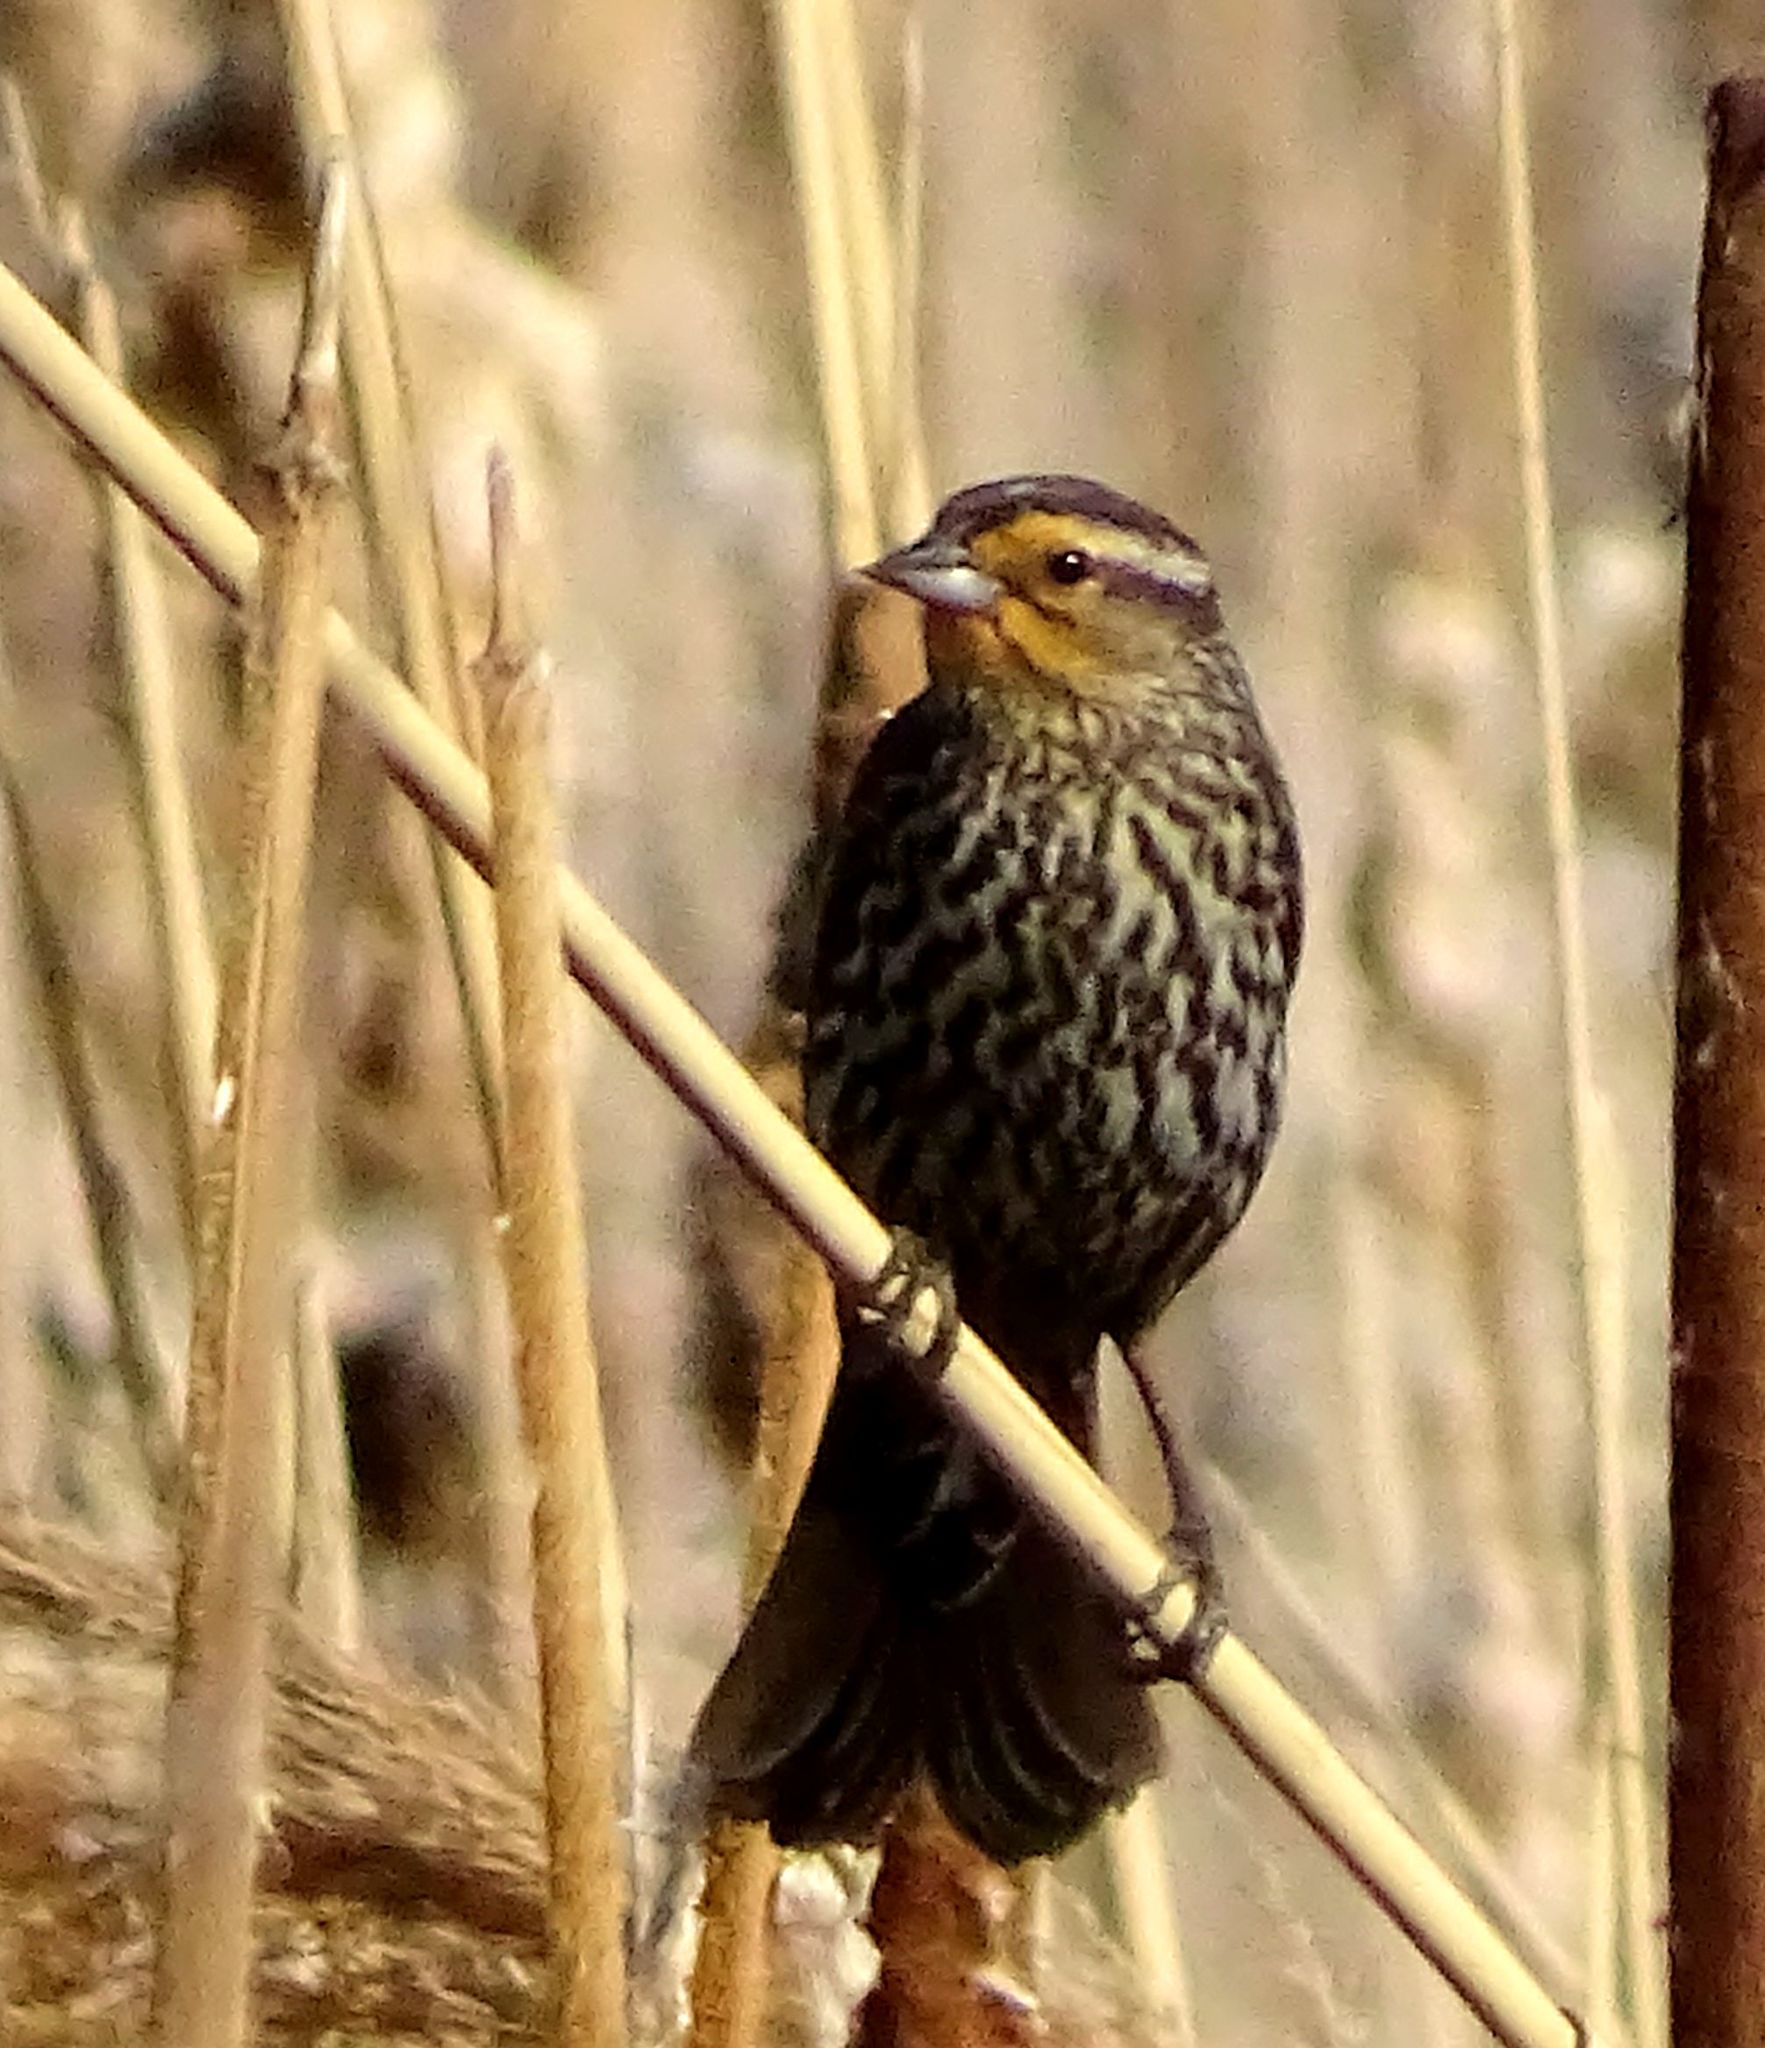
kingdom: Animalia
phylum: Chordata
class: Aves
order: Passeriformes
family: Icteridae
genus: Agelaius
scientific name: Agelaius phoeniceus
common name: Red-winged blackbird
